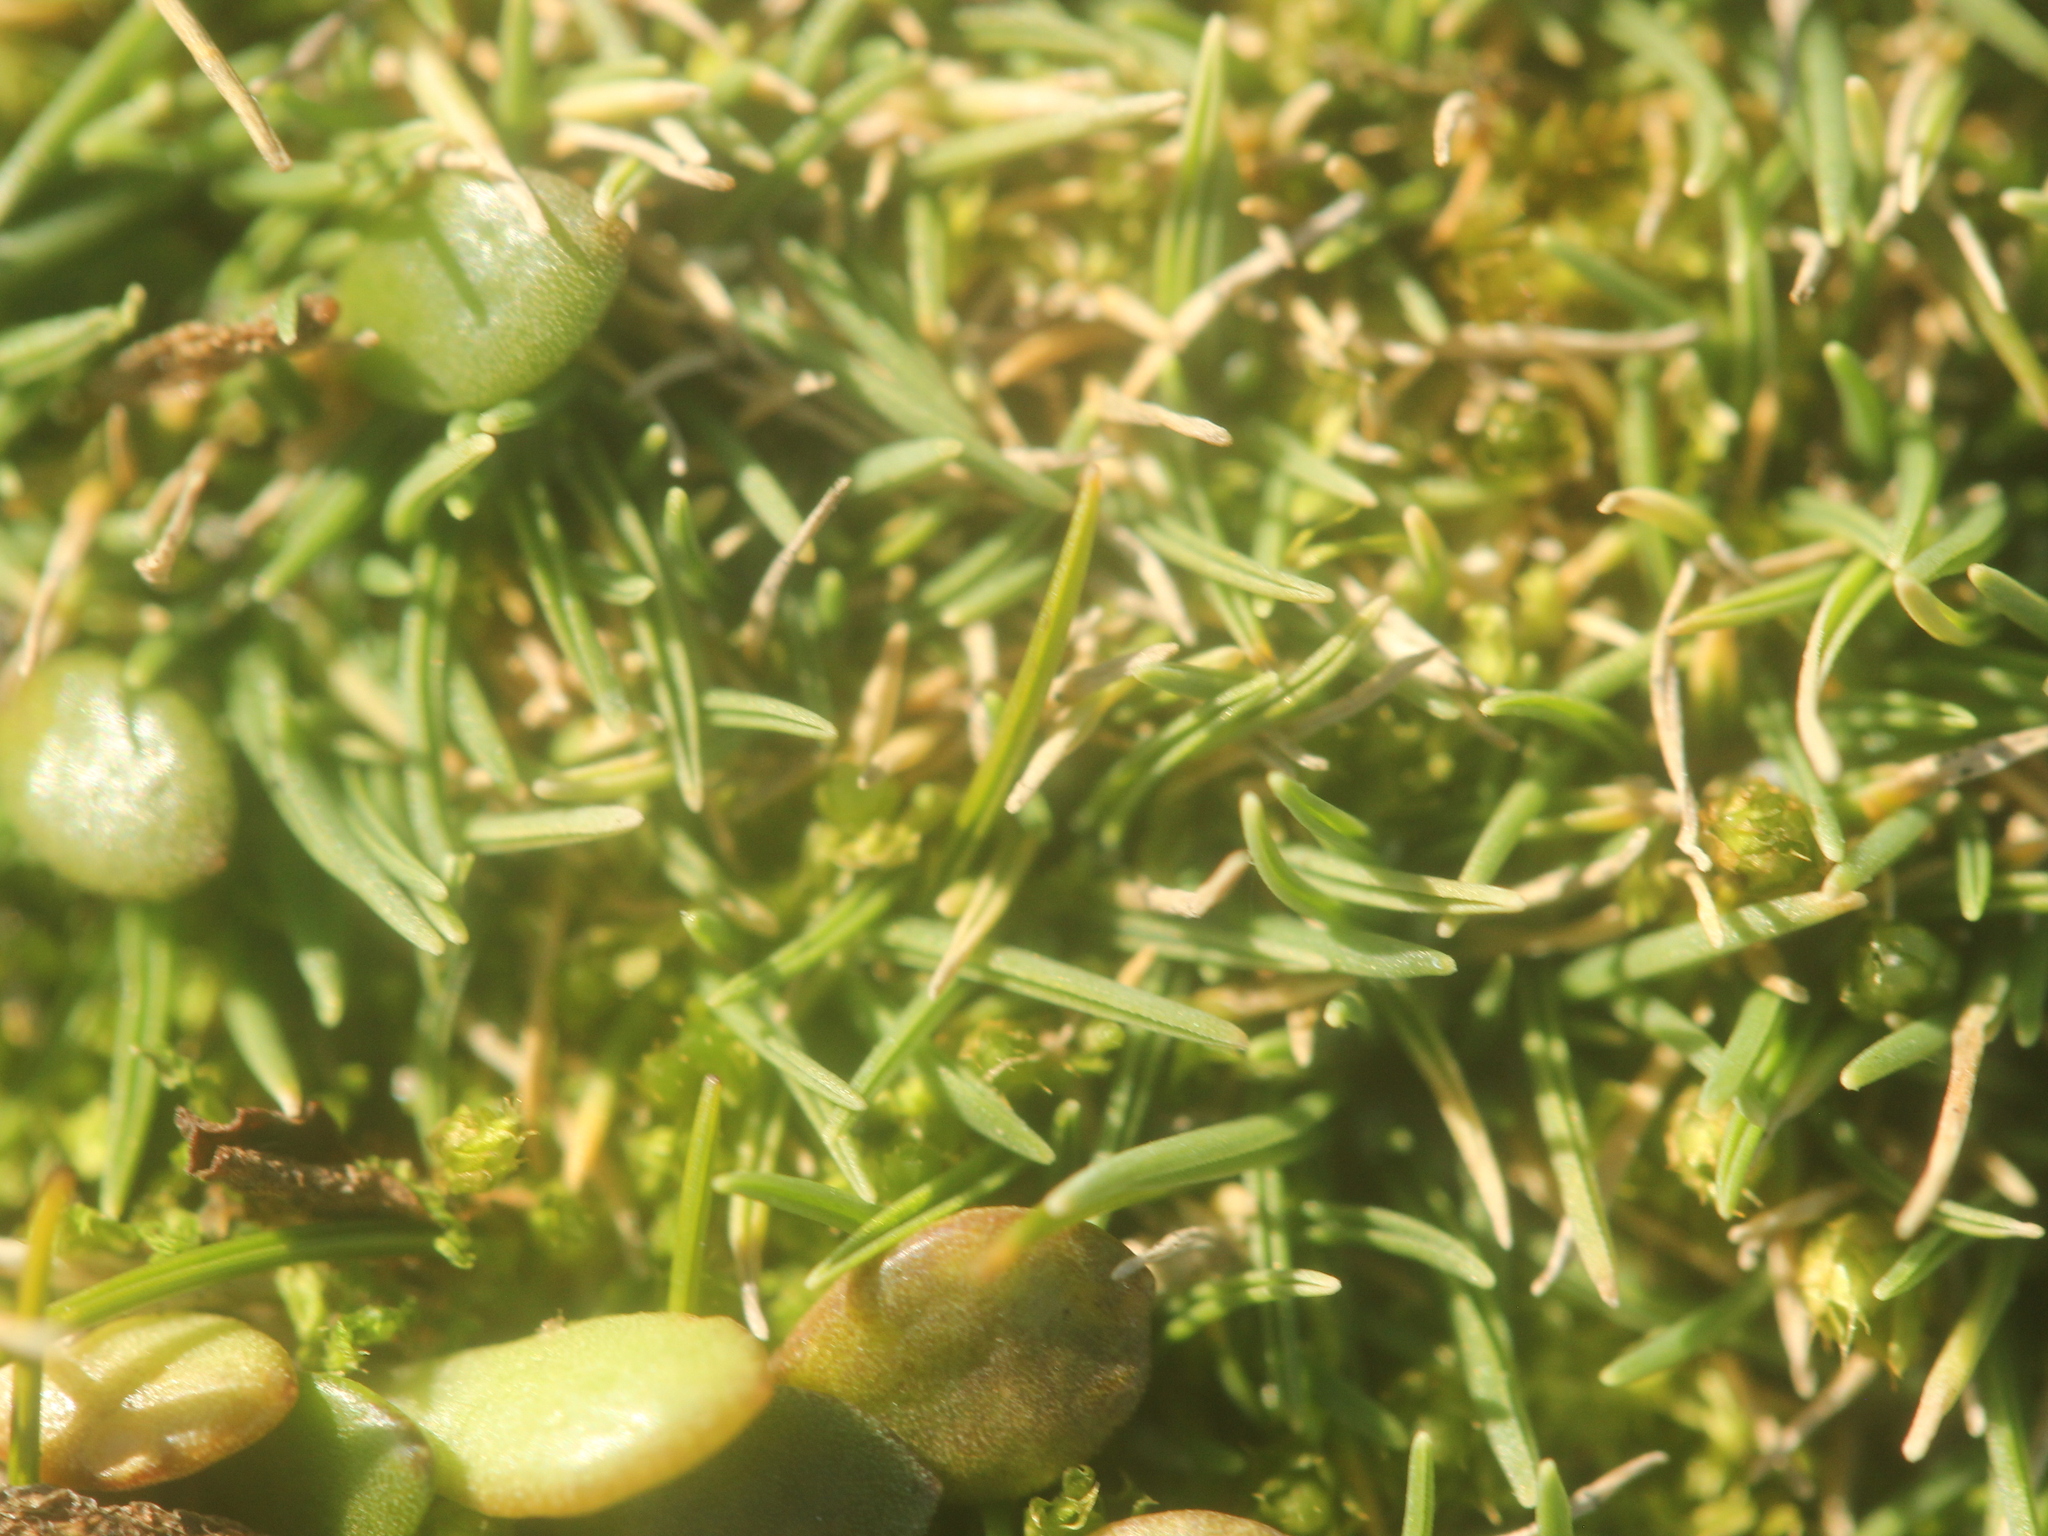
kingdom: Plantae
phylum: Tracheophyta
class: Liliopsida
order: Poales
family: Poaceae
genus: Agrostis
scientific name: Agrostis muscosa
